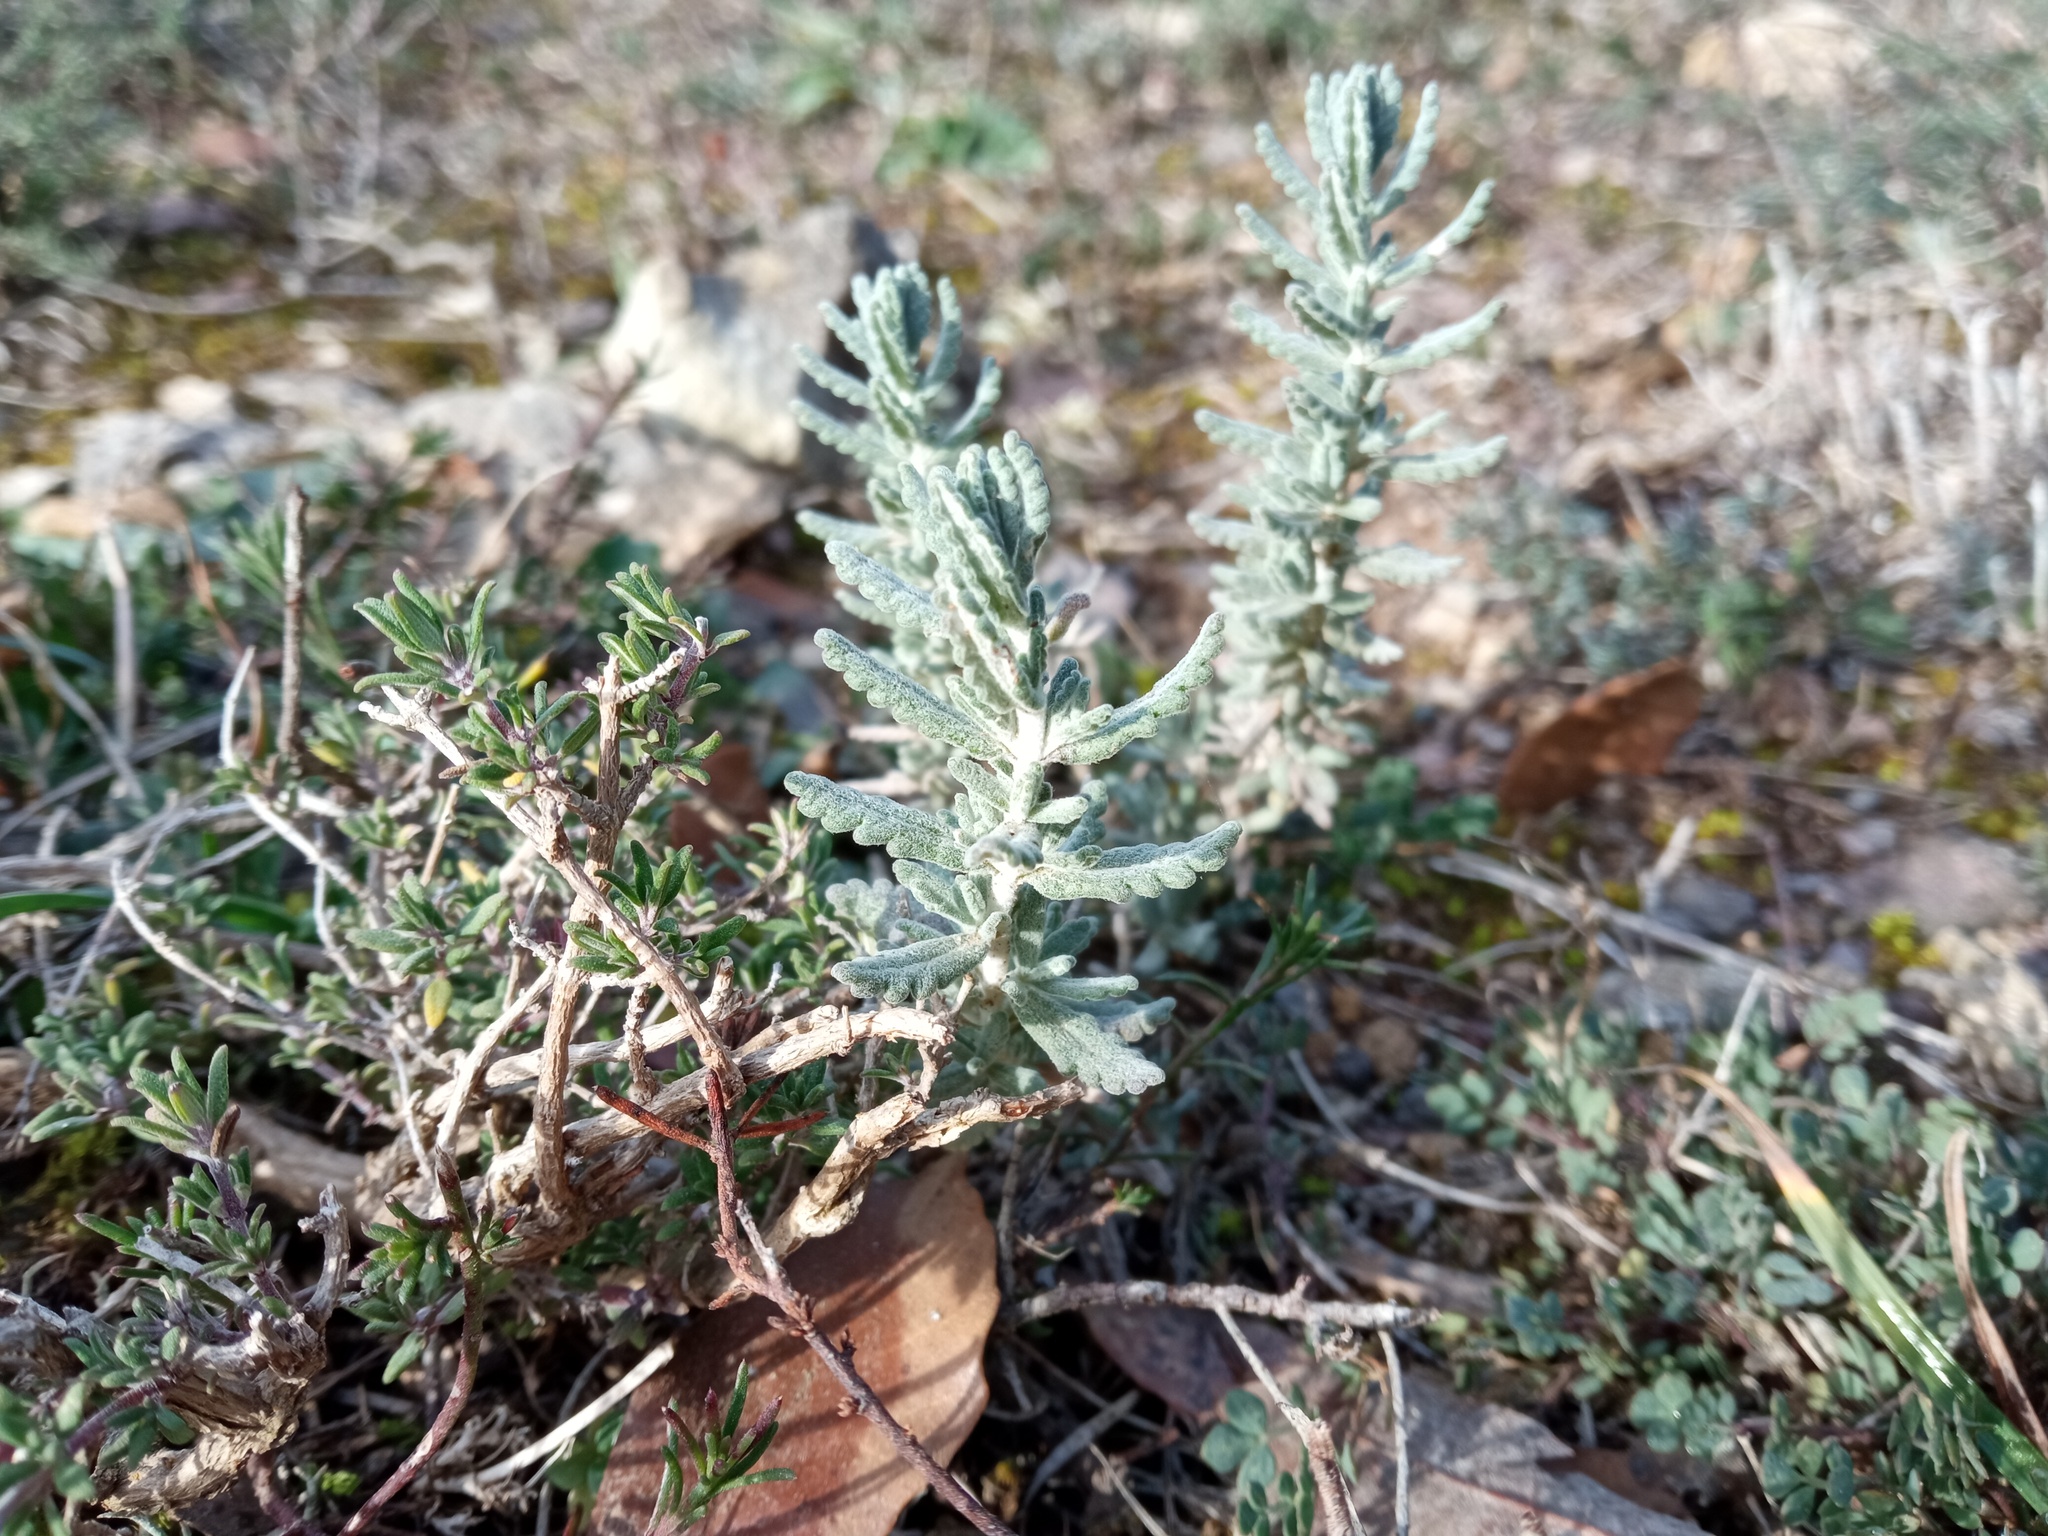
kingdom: Plantae
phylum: Tracheophyta
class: Magnoliopsida
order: Lamiales
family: Lamiaceae
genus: Teucrium
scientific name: Teucrium polium
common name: Poley
